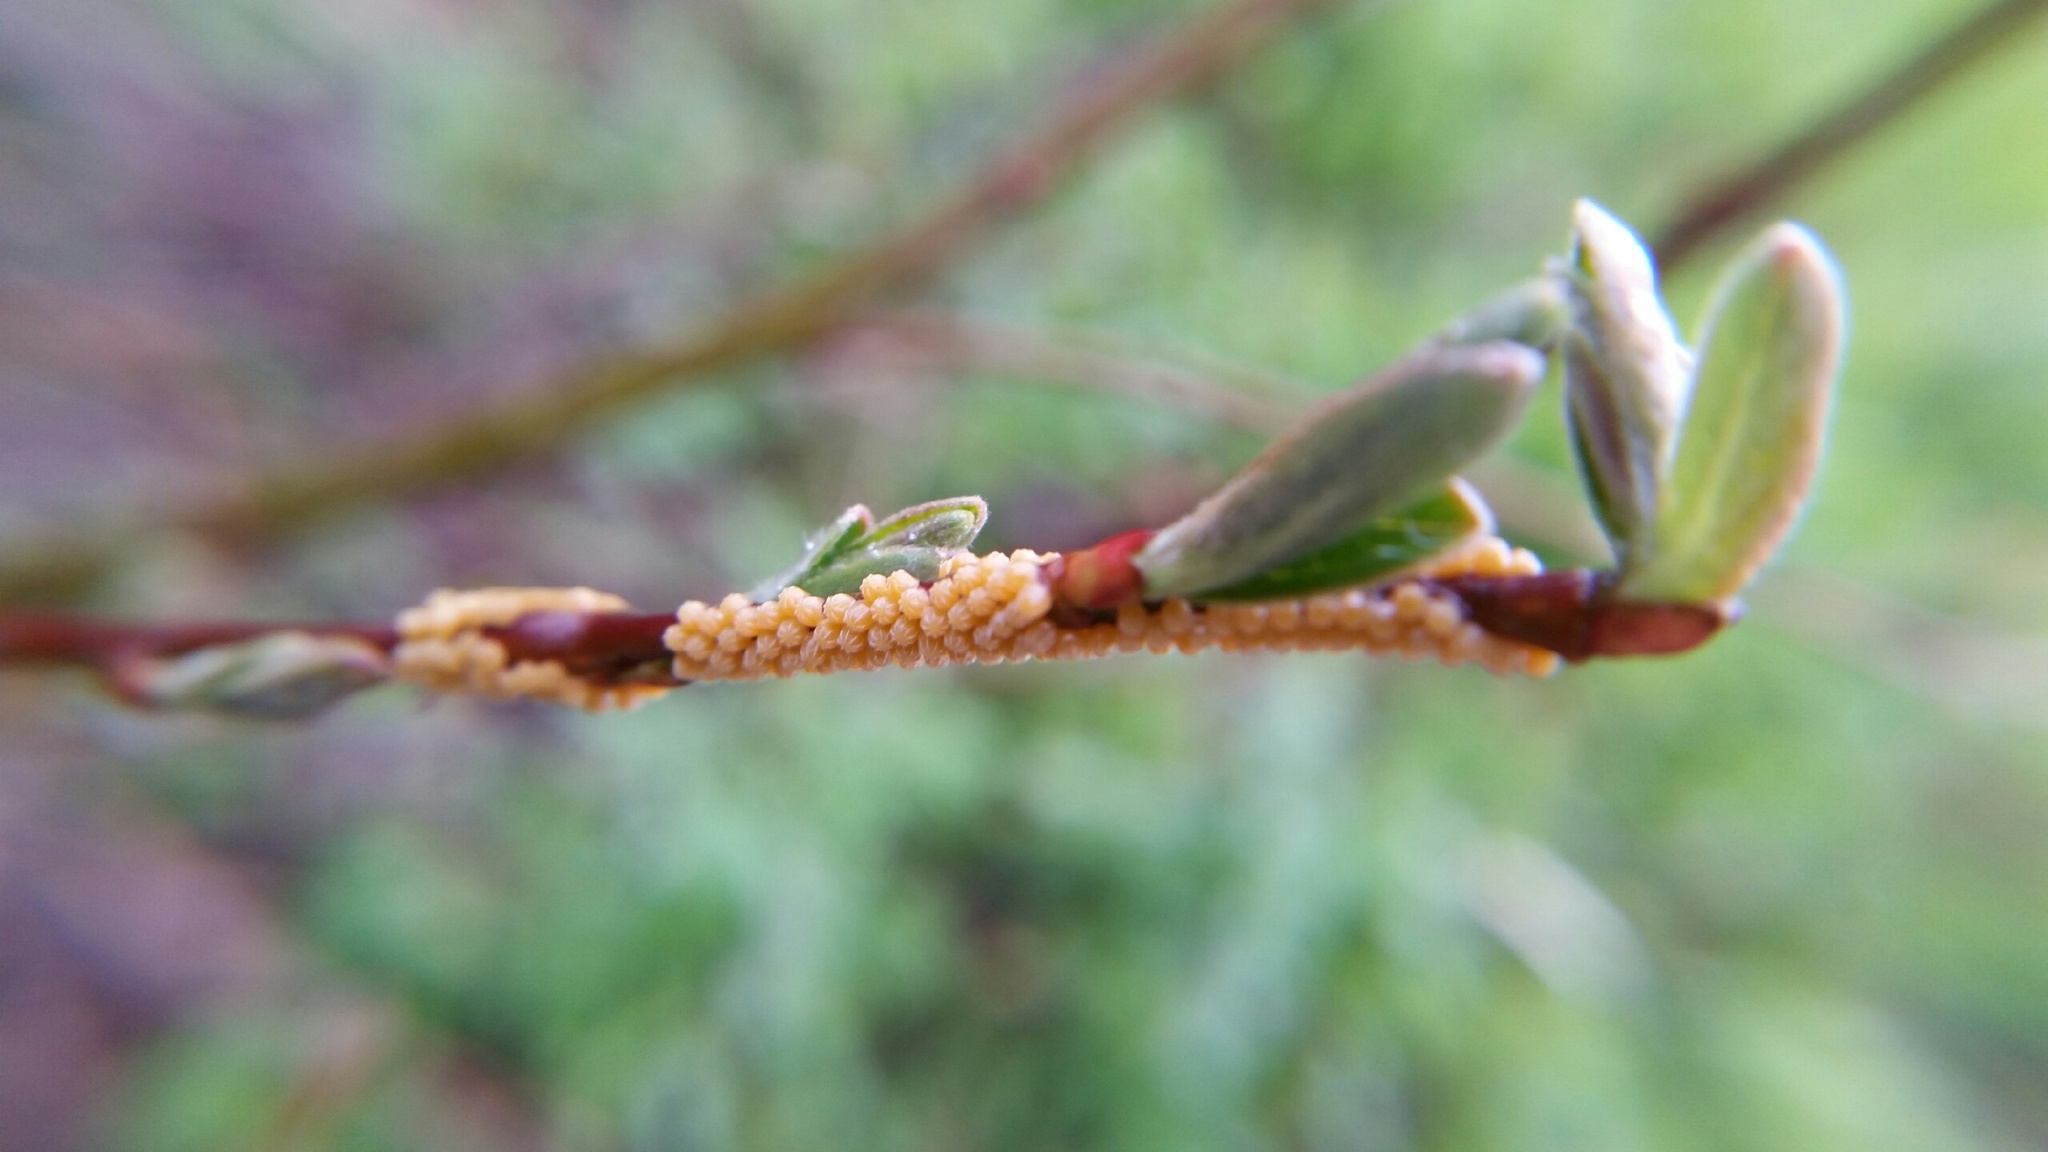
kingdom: Animalia
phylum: Arthropoda
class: Insecta
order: Lepidoptera
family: Nymphalidae
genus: Nymphalis
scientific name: Nymphalis antiopa
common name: Camberwell beauty
